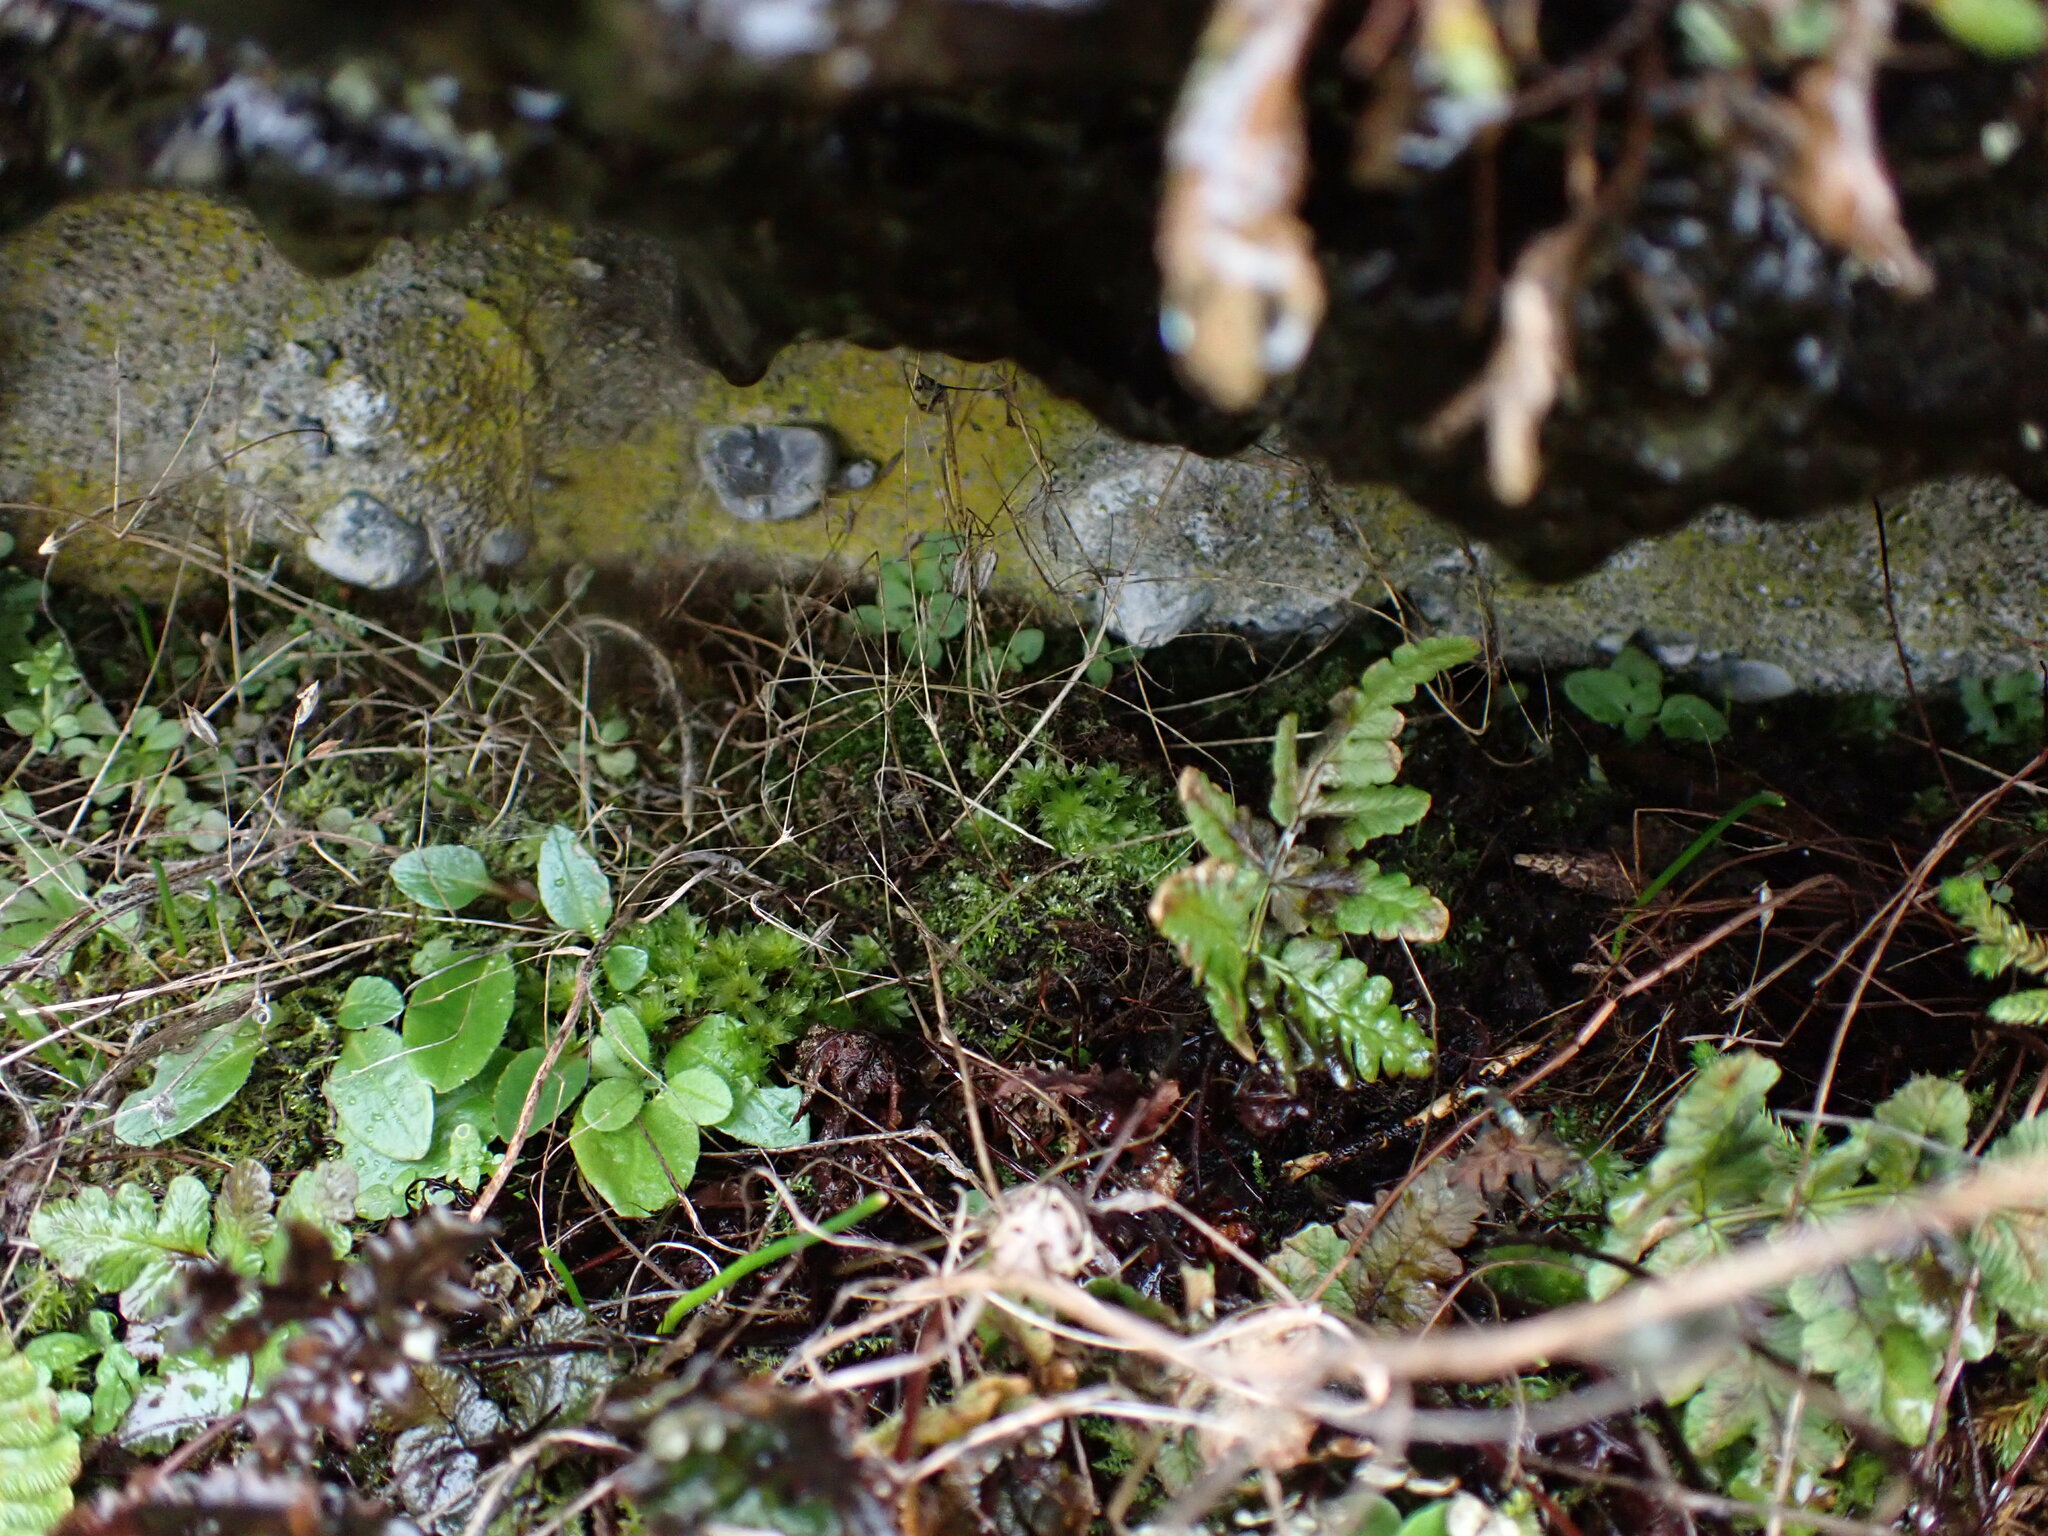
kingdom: Plantae
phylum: Bryophyta
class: Bryopsida
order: Bryales
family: Bryaceae
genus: Rosulabryum
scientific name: Rosulabryum canariense
